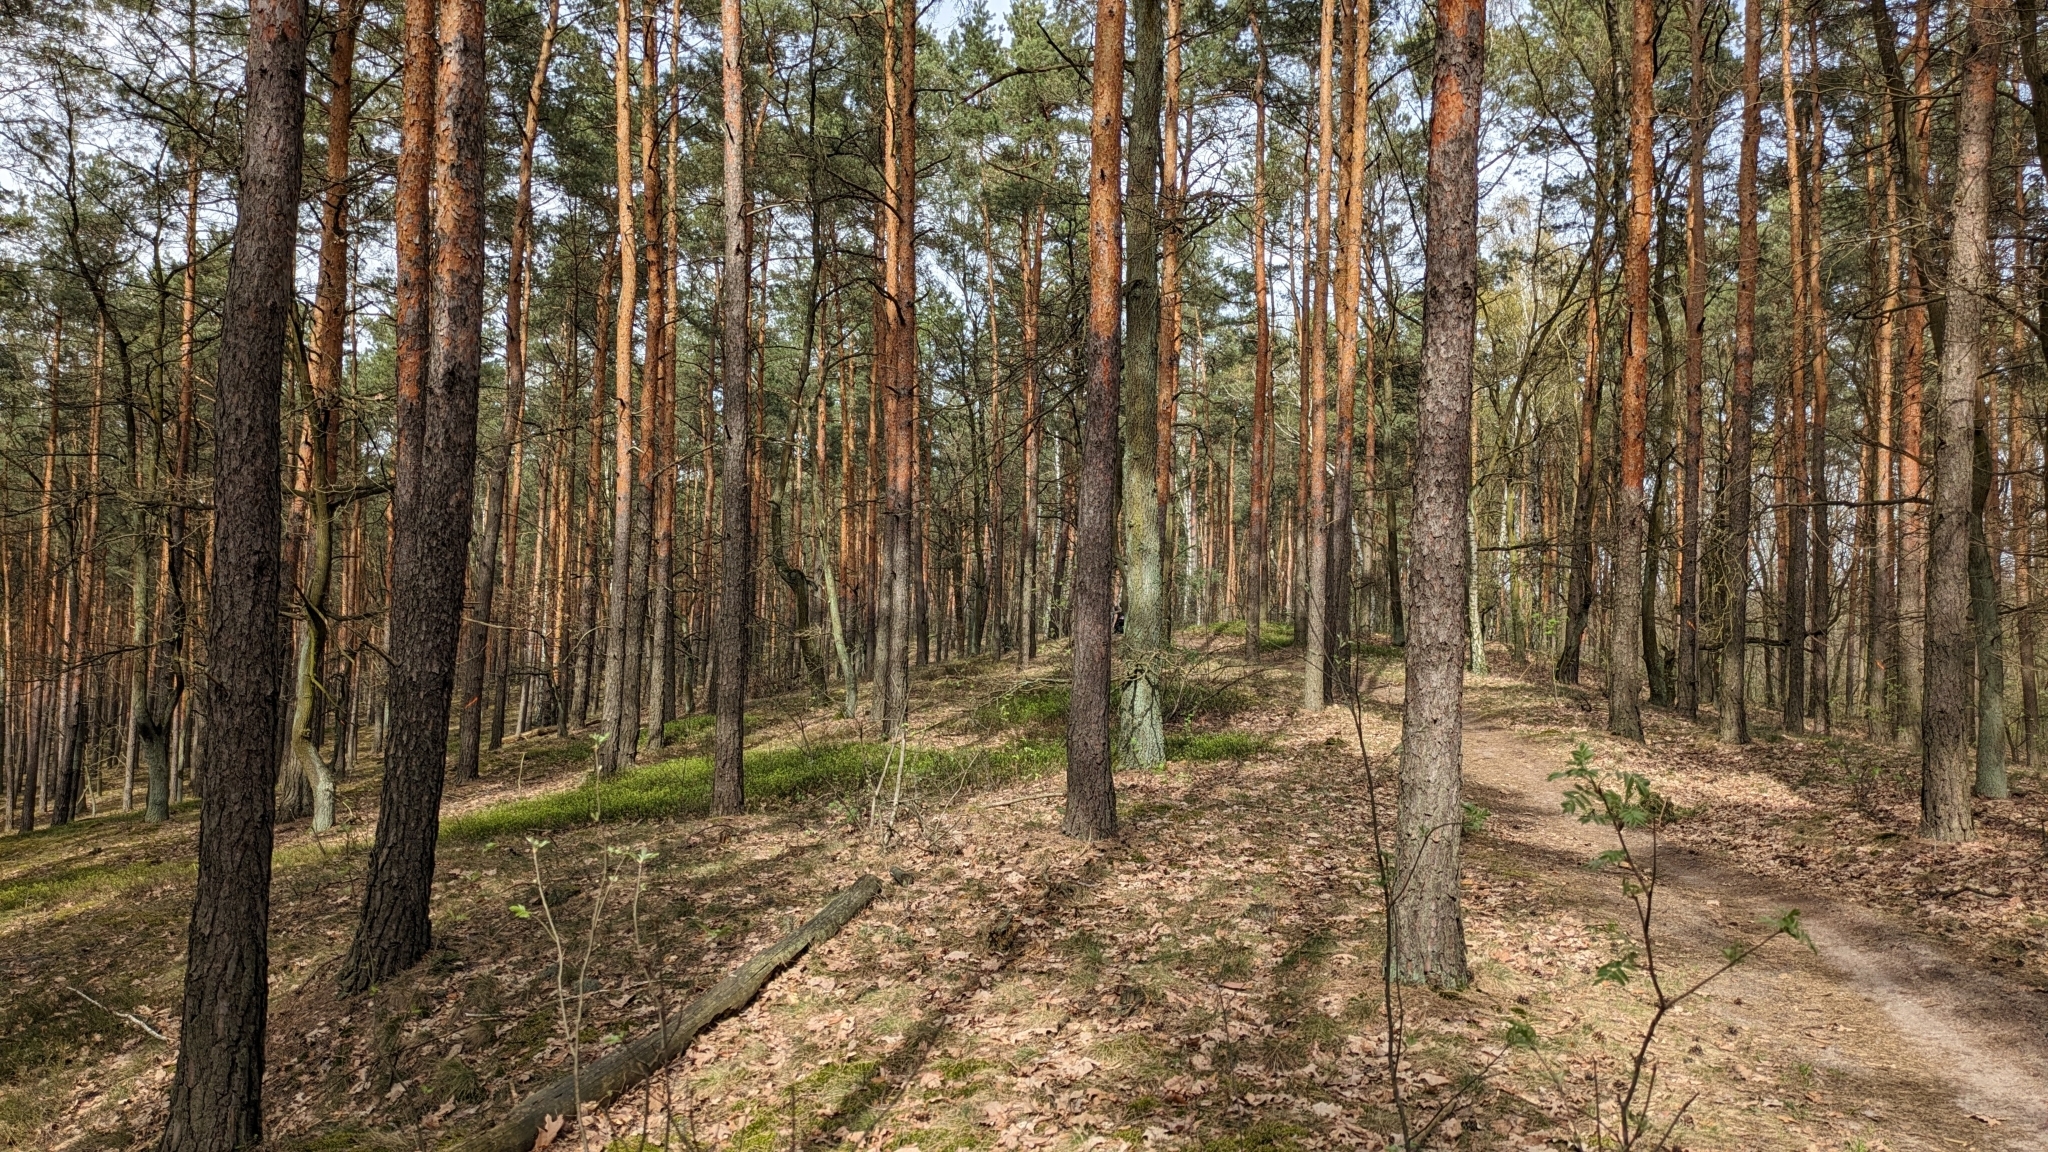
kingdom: Animalia
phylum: Chordata
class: Aves
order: Passeriformes
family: Paridae
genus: Parus
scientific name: Parus major
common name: Great tit
